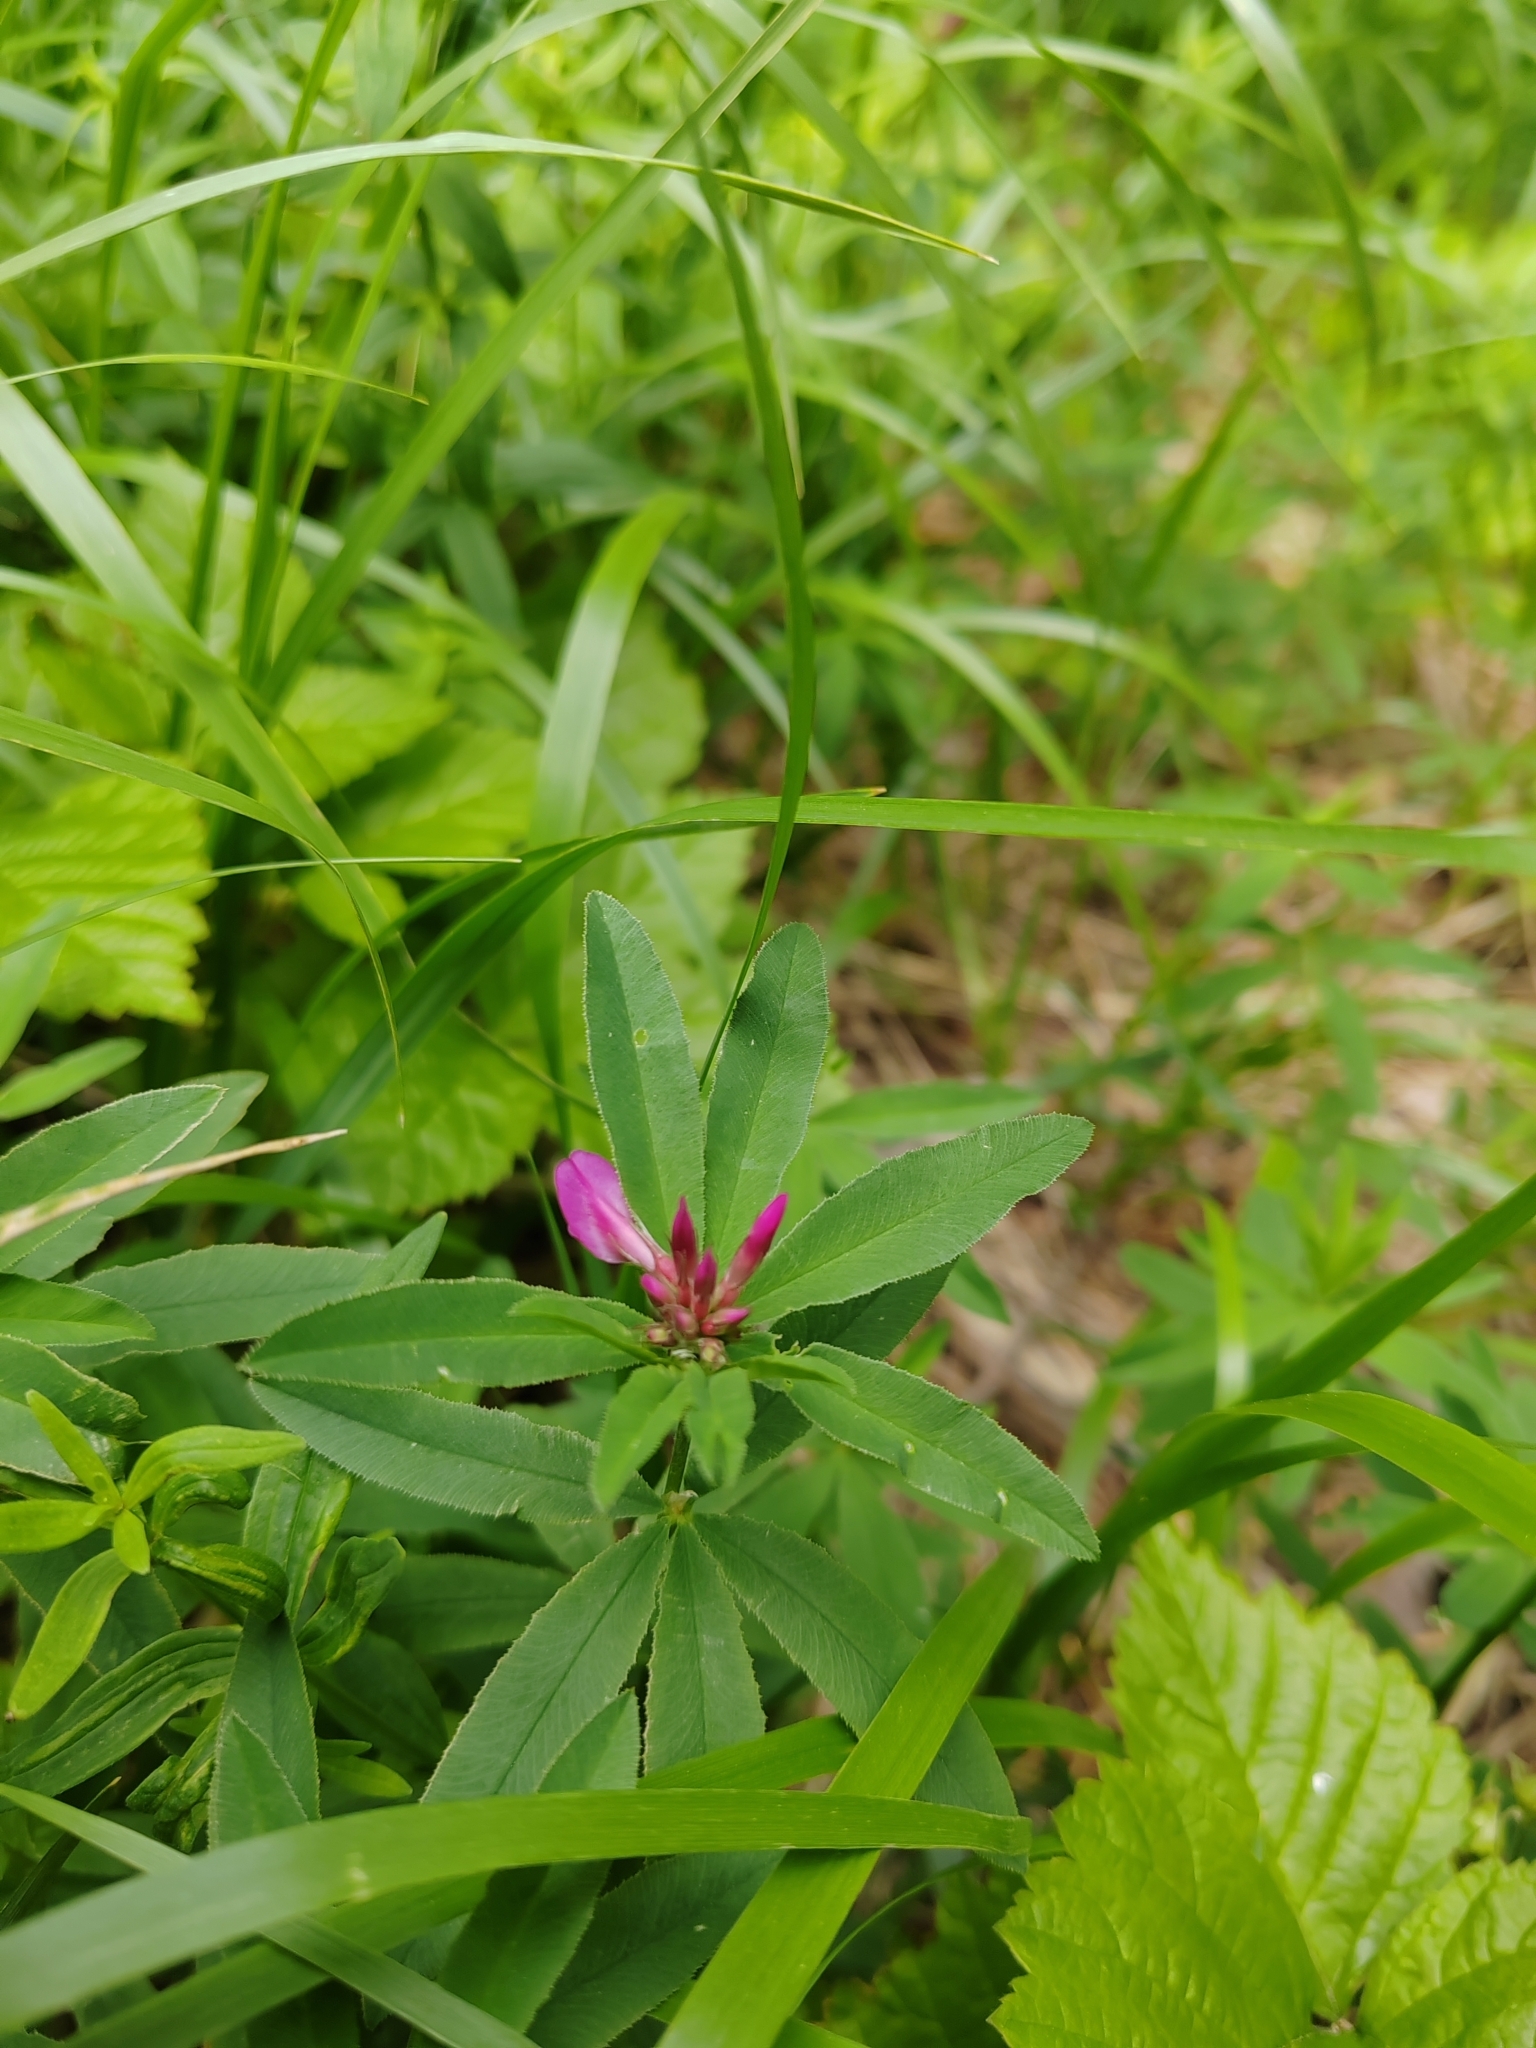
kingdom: Plantae
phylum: Tracheophyta
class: Magnoliopsida
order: Fabales
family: Fabaceae
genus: Trifolium
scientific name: Trifolium lupinaster
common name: Lupine clover
